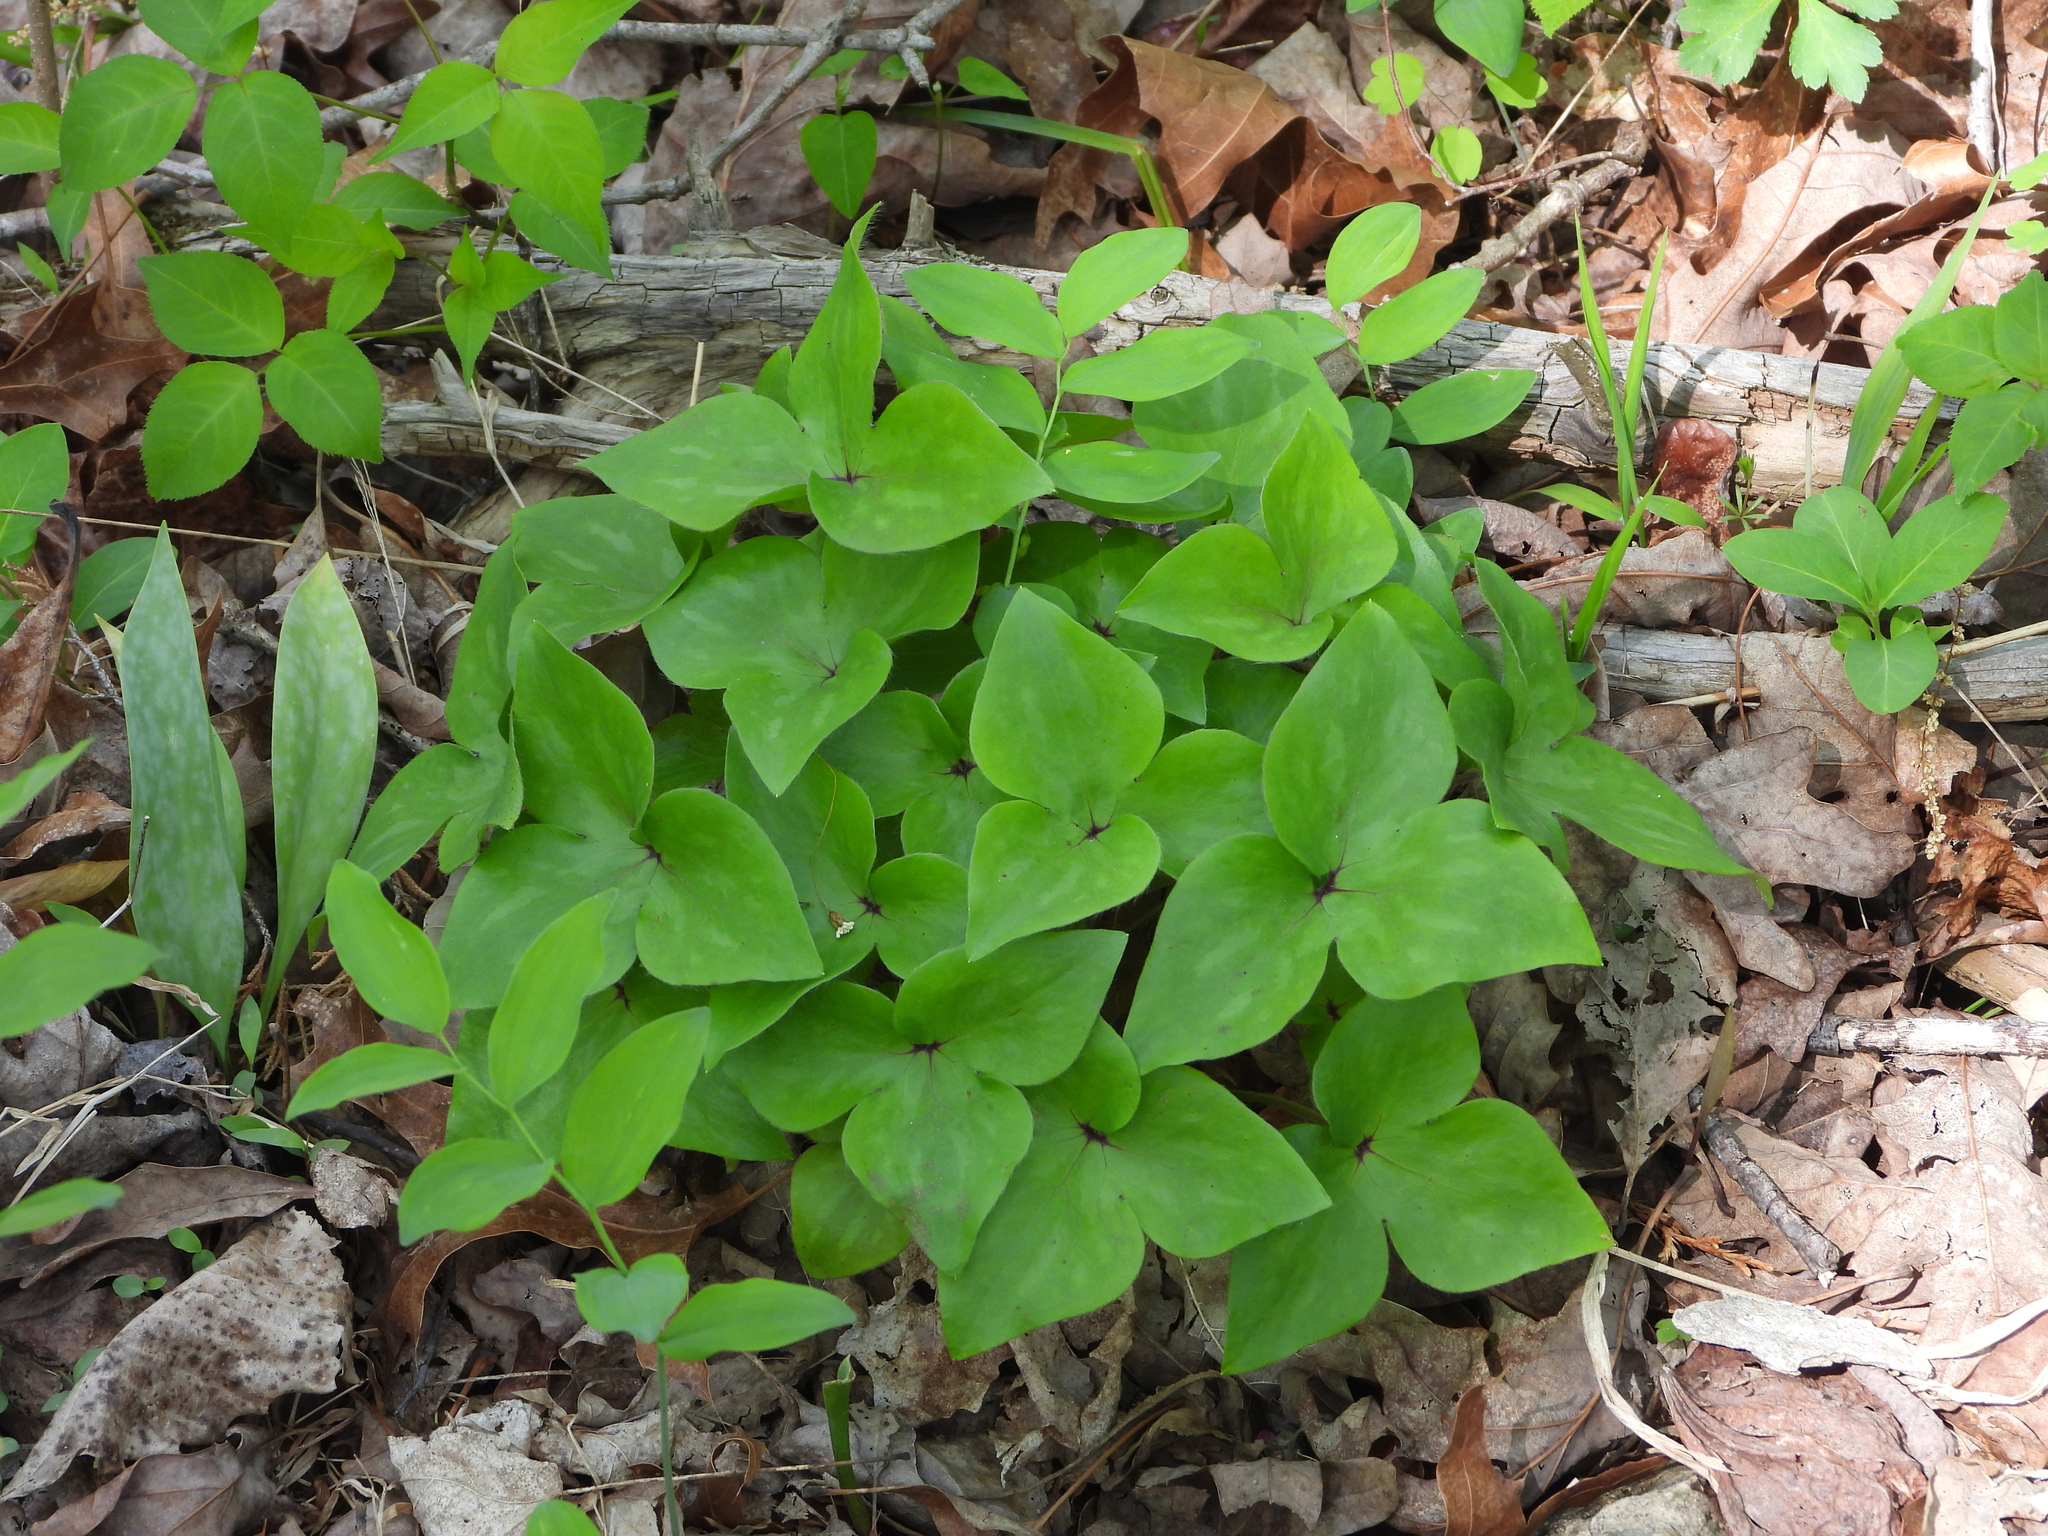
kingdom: Plantae
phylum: Tracheophyta
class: Magnoliopsida
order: Ranunculales
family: Ranunculaceae
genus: Hepatica
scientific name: Hepatica acutiloba
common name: Sharp-lobed hepatica
